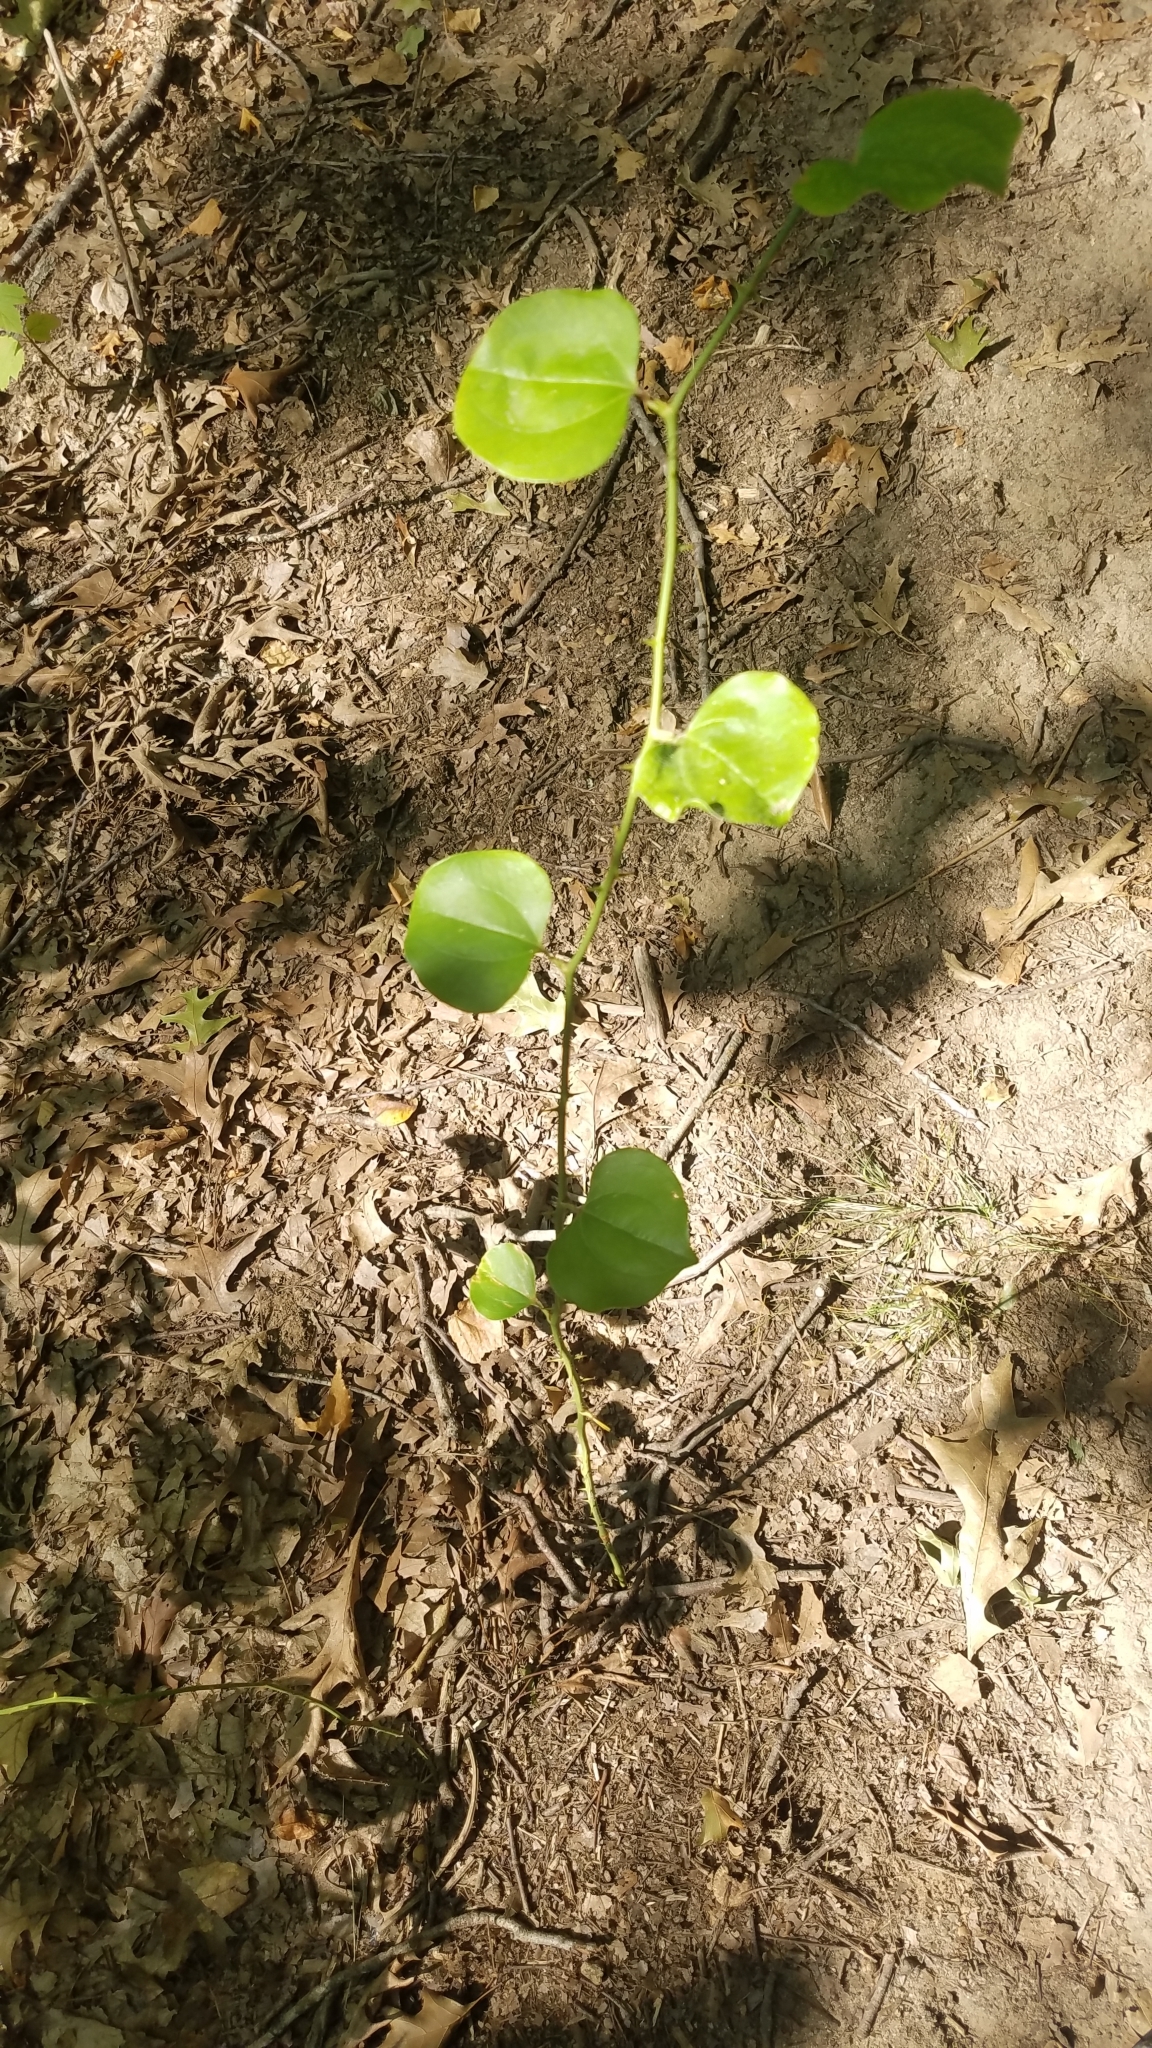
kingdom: Plantae
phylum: Tracheophyta
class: Liliopsida
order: Liliales
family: Smilacaceae
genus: Smilax
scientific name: Smilax rotundifolia
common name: Bullbriar
